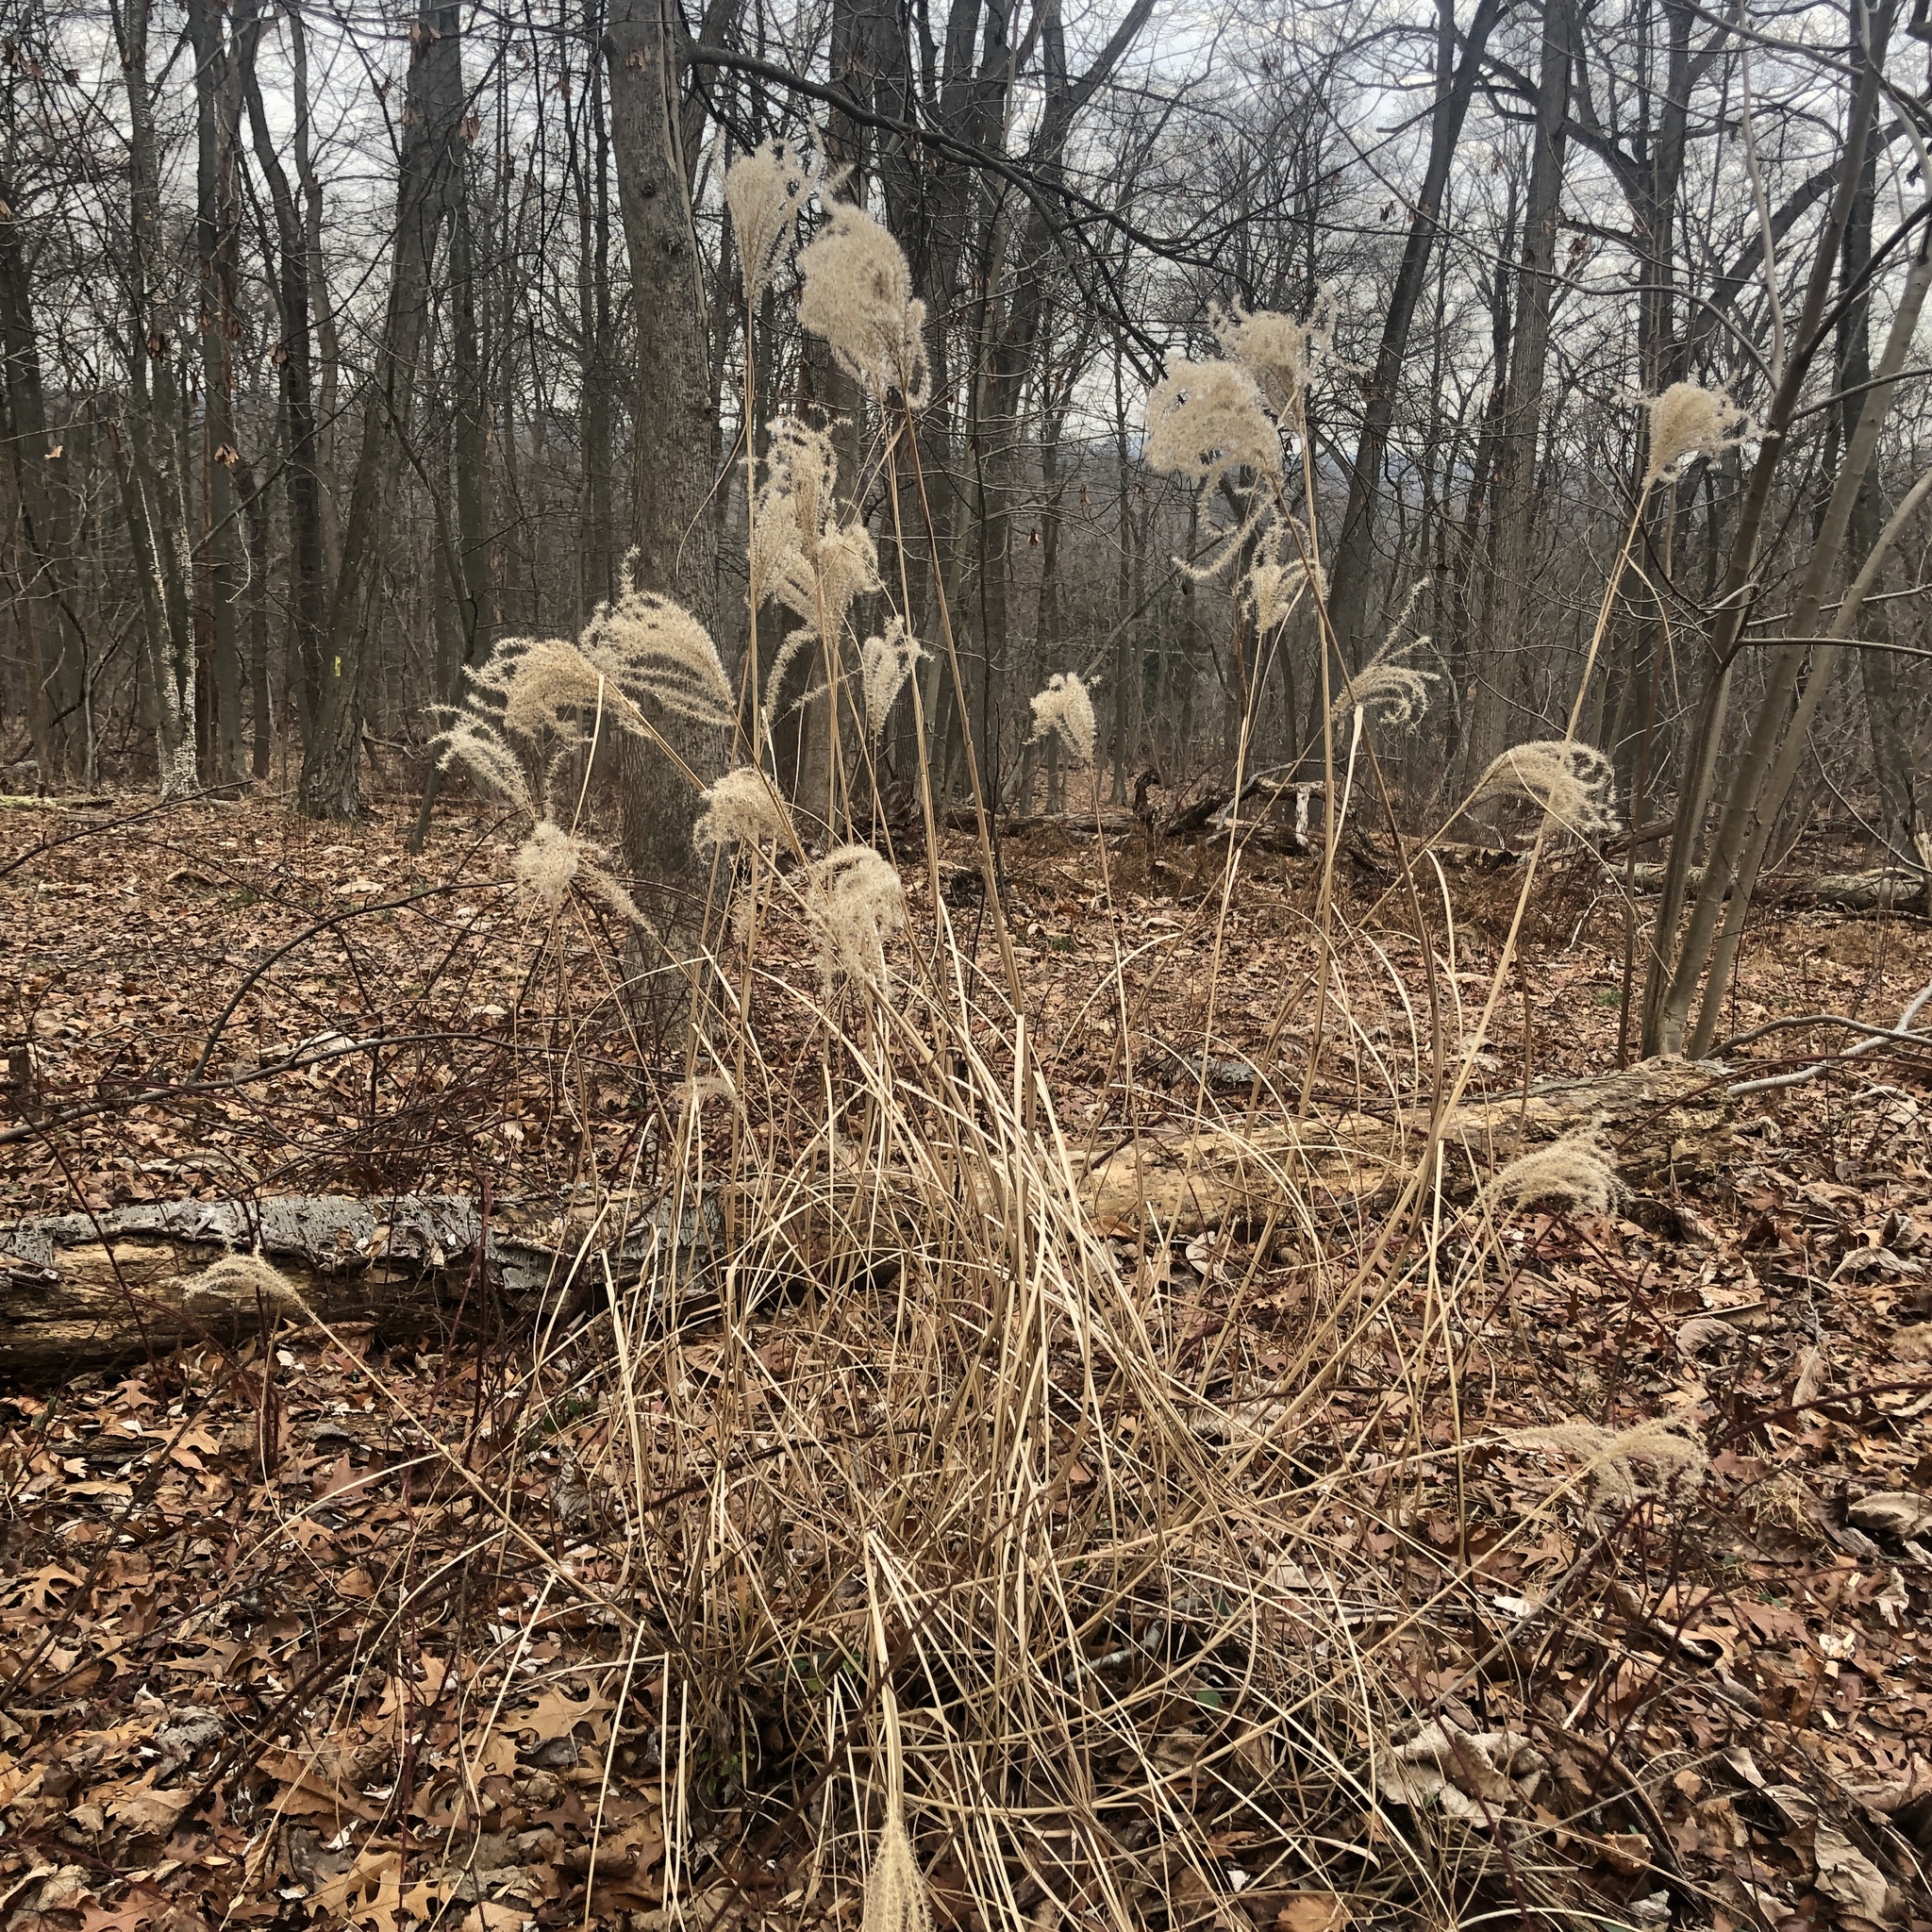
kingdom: Plantae
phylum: Tracheophyta
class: Liliopsida
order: Poales
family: Poaceae
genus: Miscanthus
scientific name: Miscanthus sinensis
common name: Chinese silvergrass
